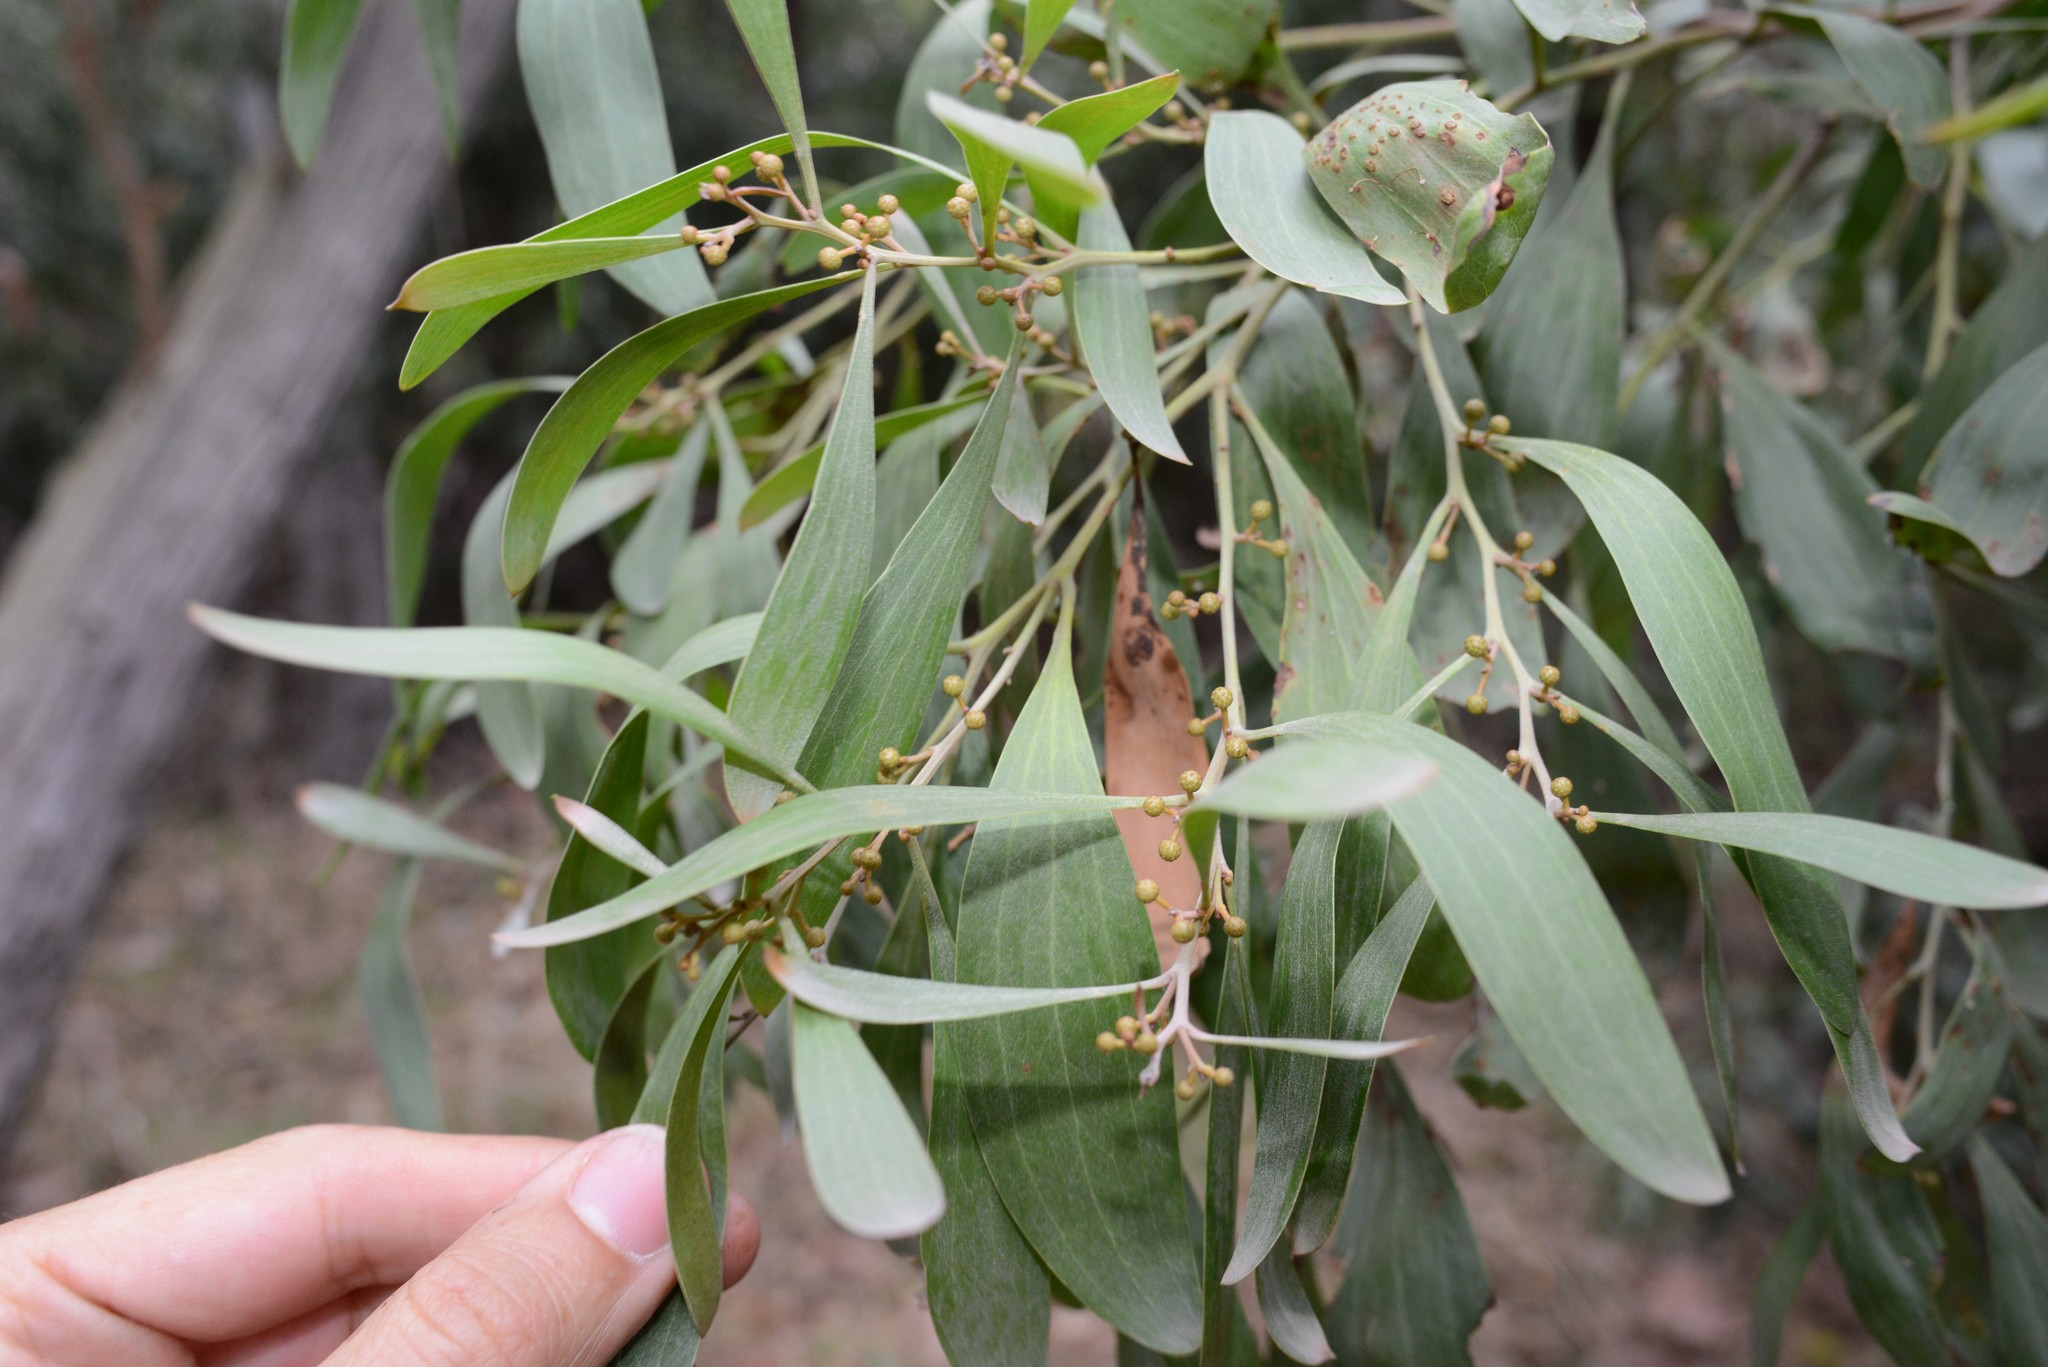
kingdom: Plantae
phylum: Tracheophyta
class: Magnoliopsida
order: Fabales
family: Fabaceae
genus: Acacia
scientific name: Acacia melanoxylon
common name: Blackwood
